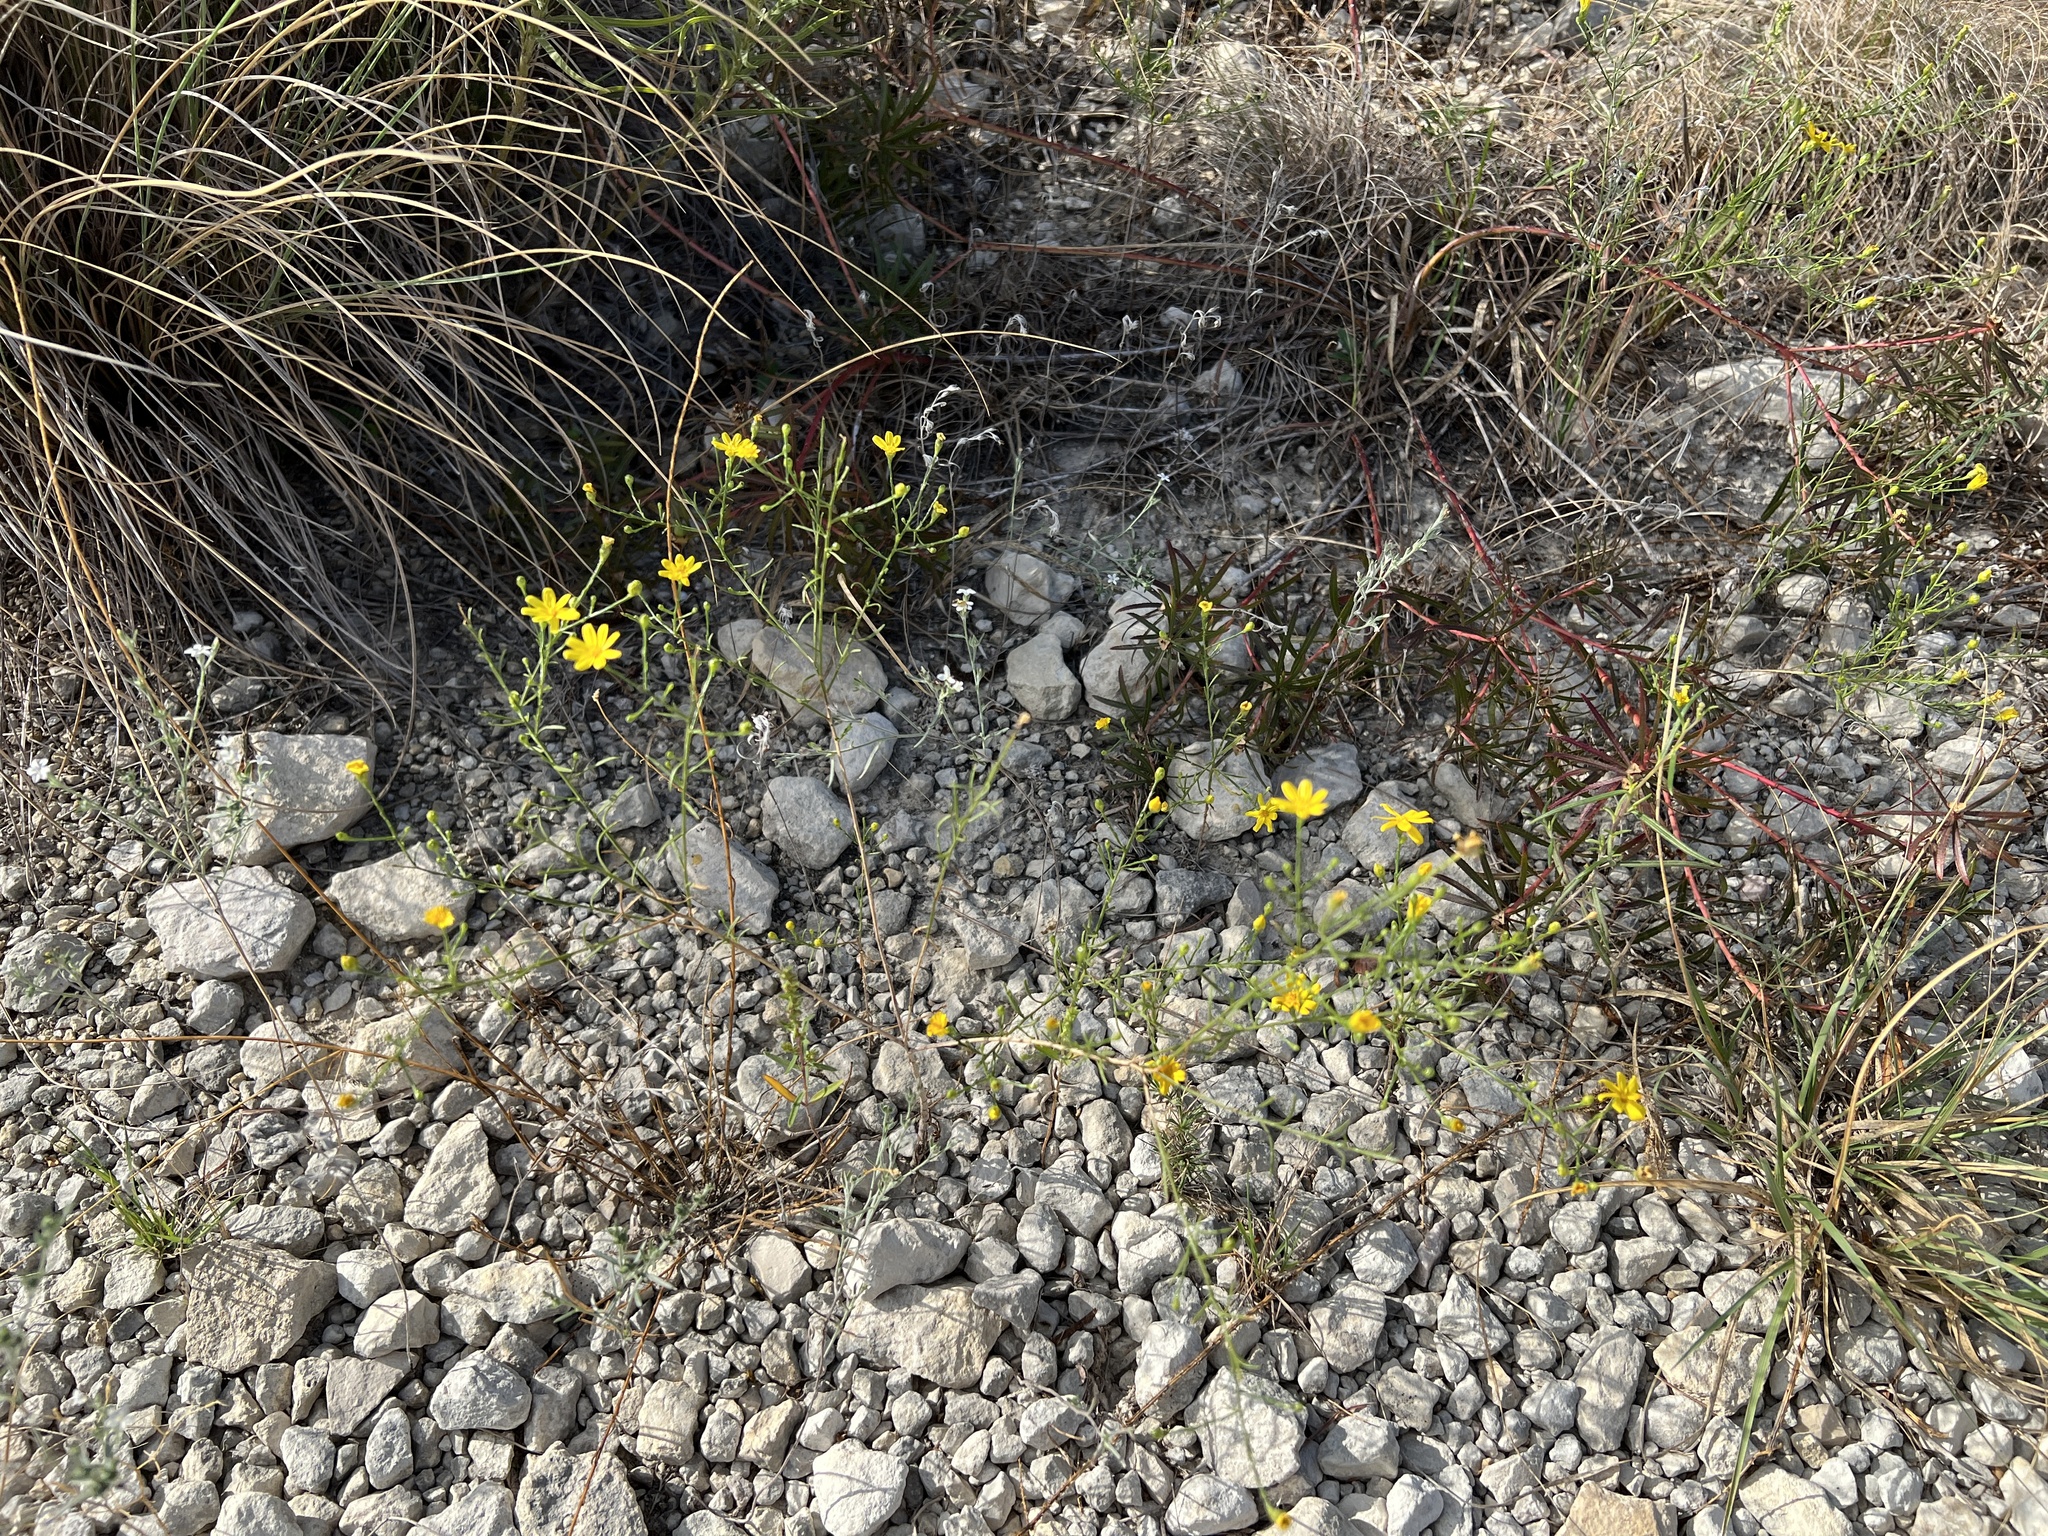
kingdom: Plantae
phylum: Tracheophyta
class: Magnoliopsida
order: Asterales
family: Asteraceae
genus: Amphiachyris
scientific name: Amphiachyris amoenum
